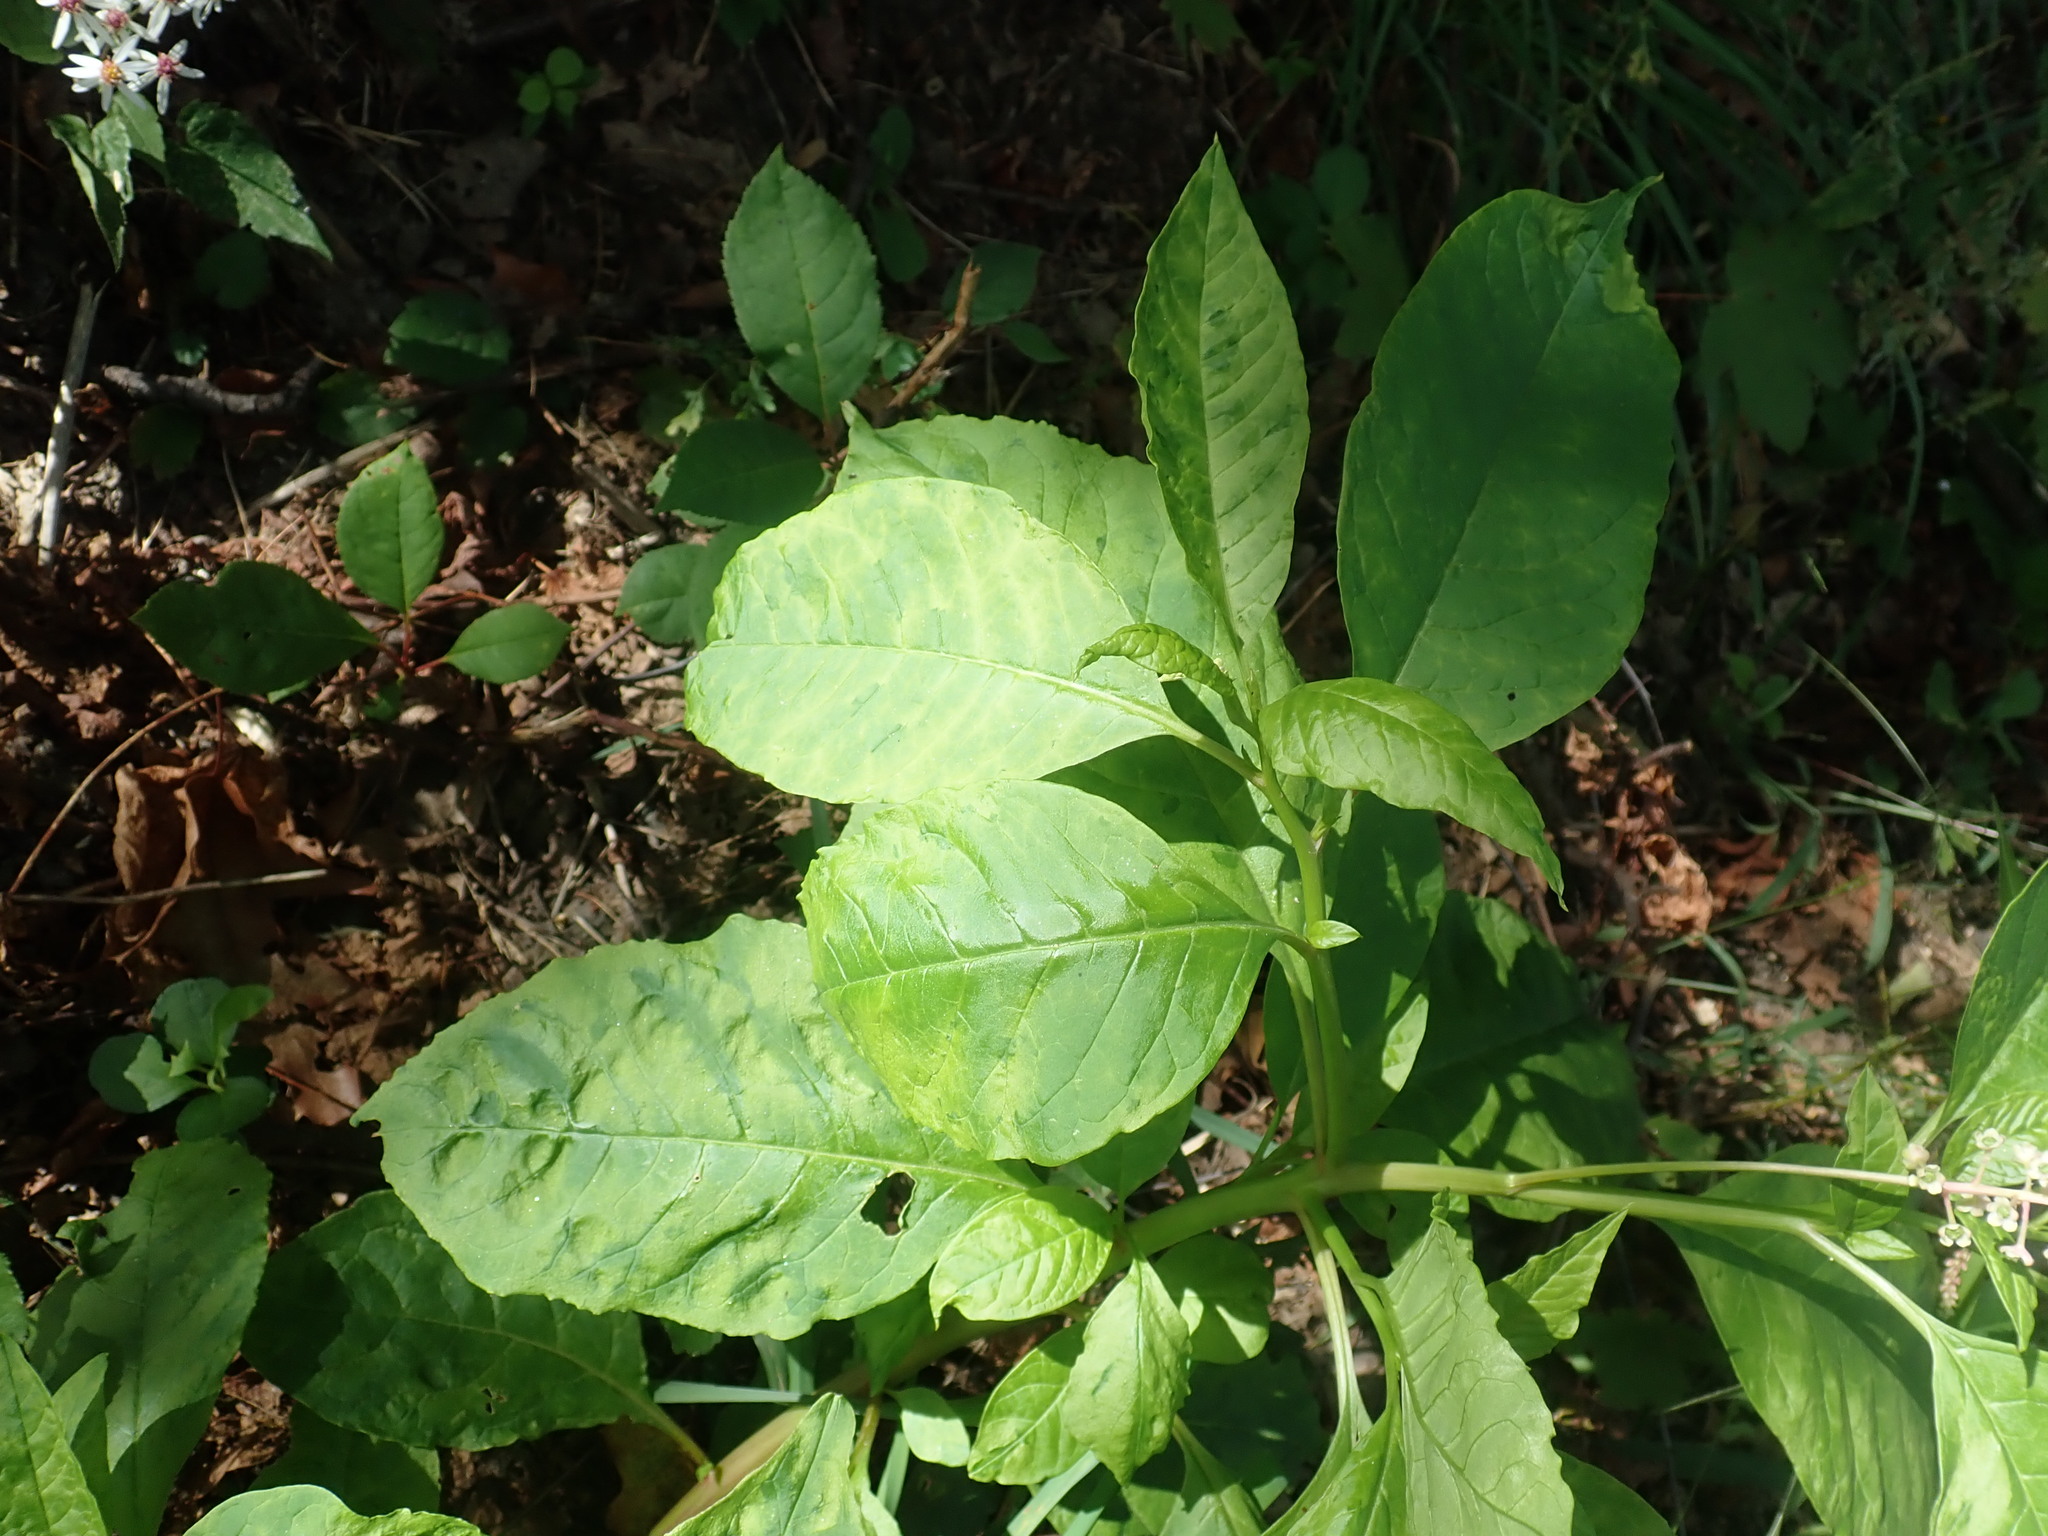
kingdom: Viruses
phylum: Pisuviricota
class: Stelpaviricetes
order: Patatavirales
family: Potyviridae
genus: Potyvirus
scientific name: Potyvirus Pokeweed mosaic virus
